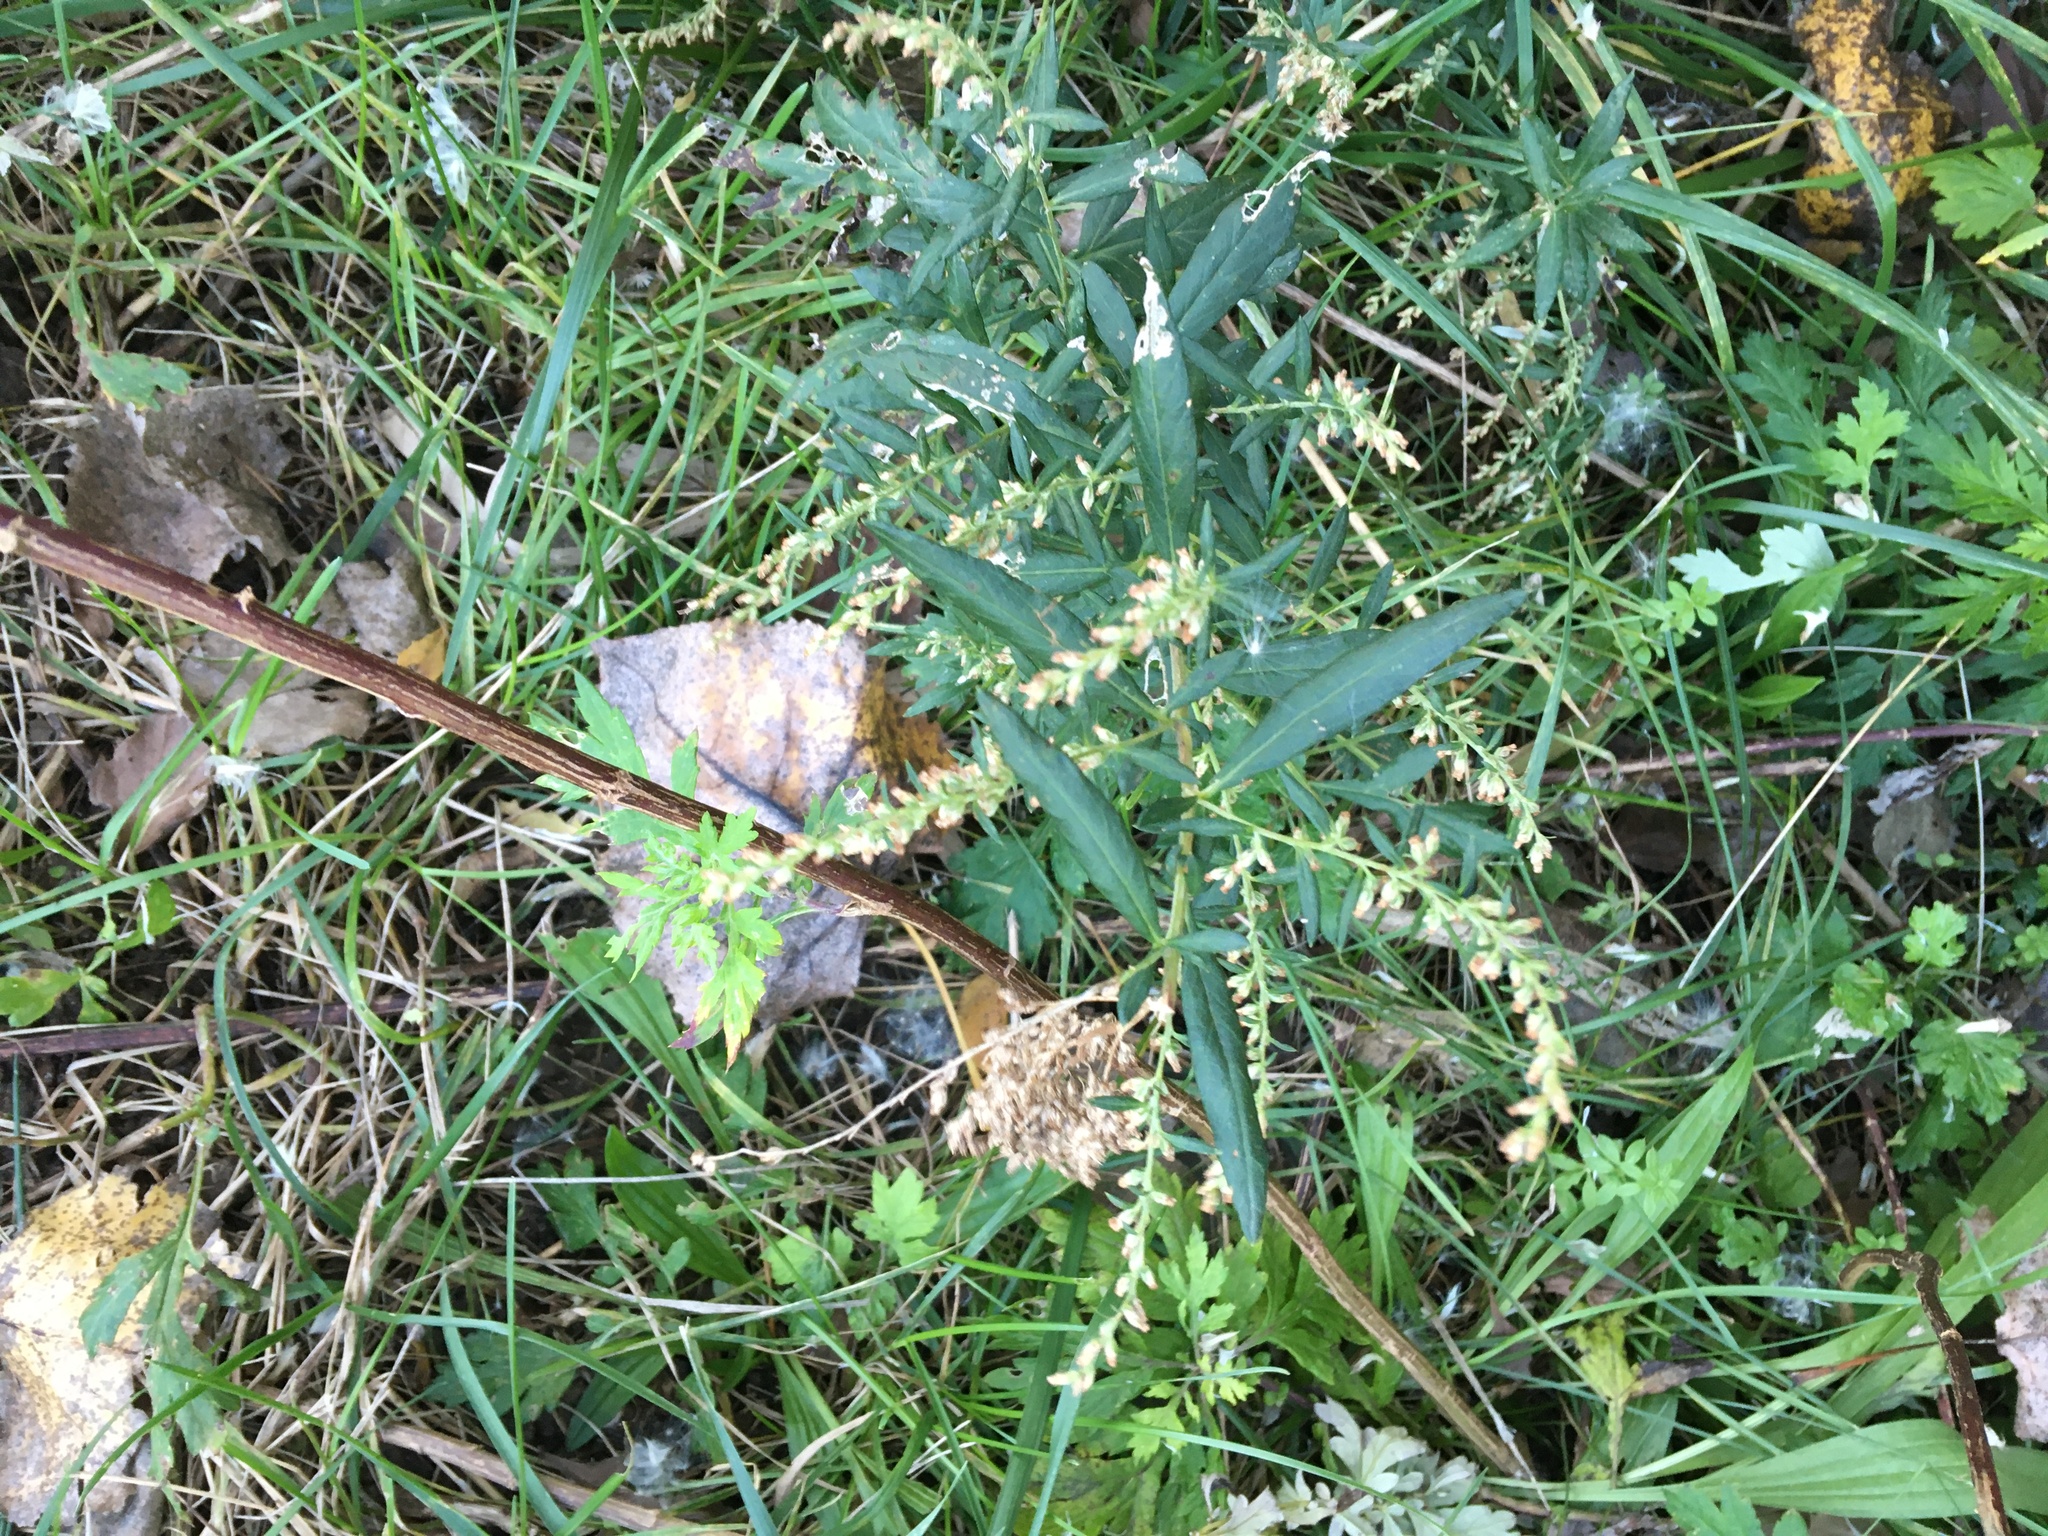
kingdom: Plantae
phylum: Tracheophyta
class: Magnoliopsida
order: Asterales
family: Asteraceae
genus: Artemisia
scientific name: Artemisia vulgaris
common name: Mugwort
